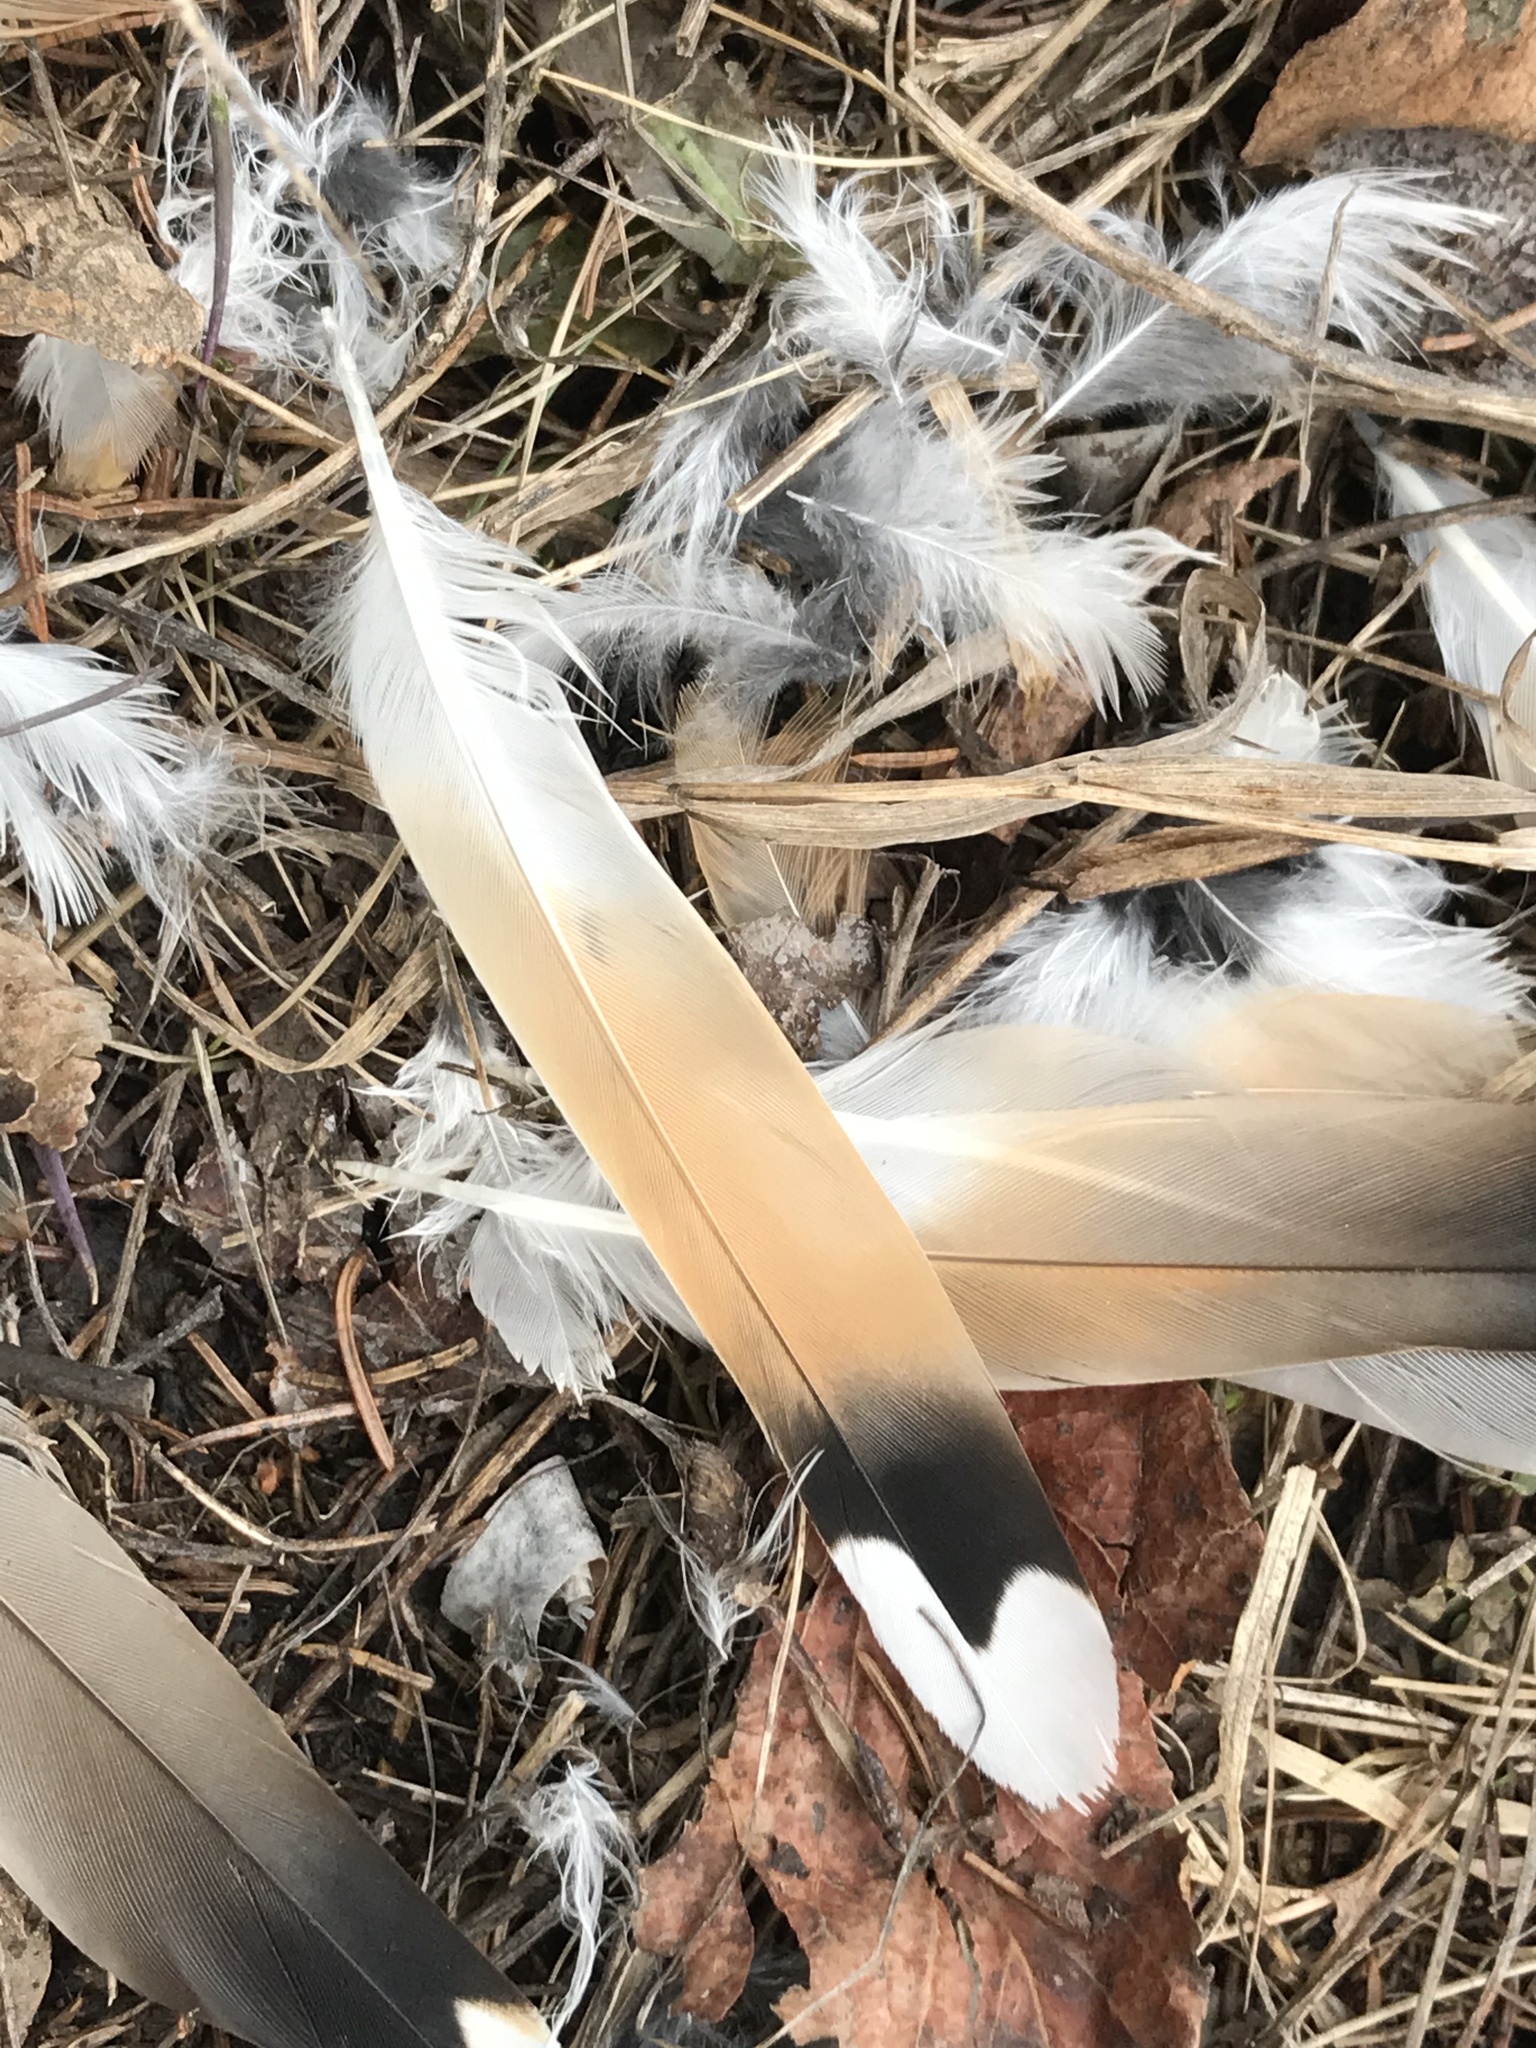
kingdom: Animalia
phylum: Chordata
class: Aves
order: Charadriiformes
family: Charadriidae
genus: Charadrius
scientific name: Charadrius vociferus
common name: Killdeer
